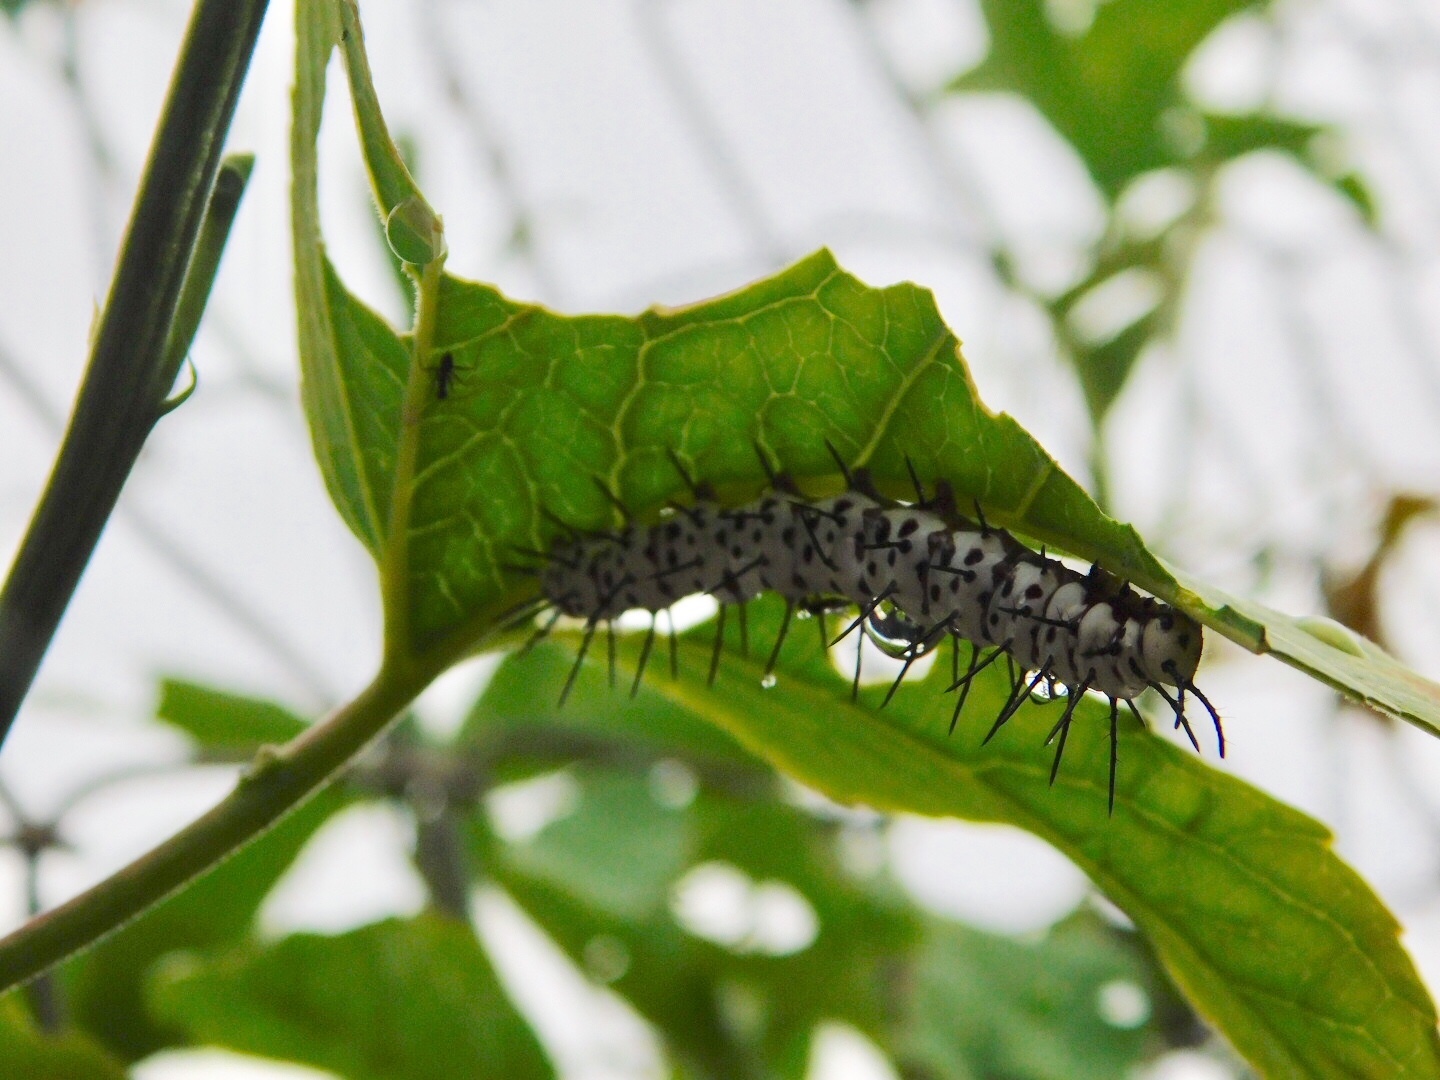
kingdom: Animalia
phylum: Arthropoda
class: Insecta
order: Lepidoptera
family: Nymphalidae
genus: Heliconius
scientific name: Heliconius charithonia
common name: Zebra long wing
